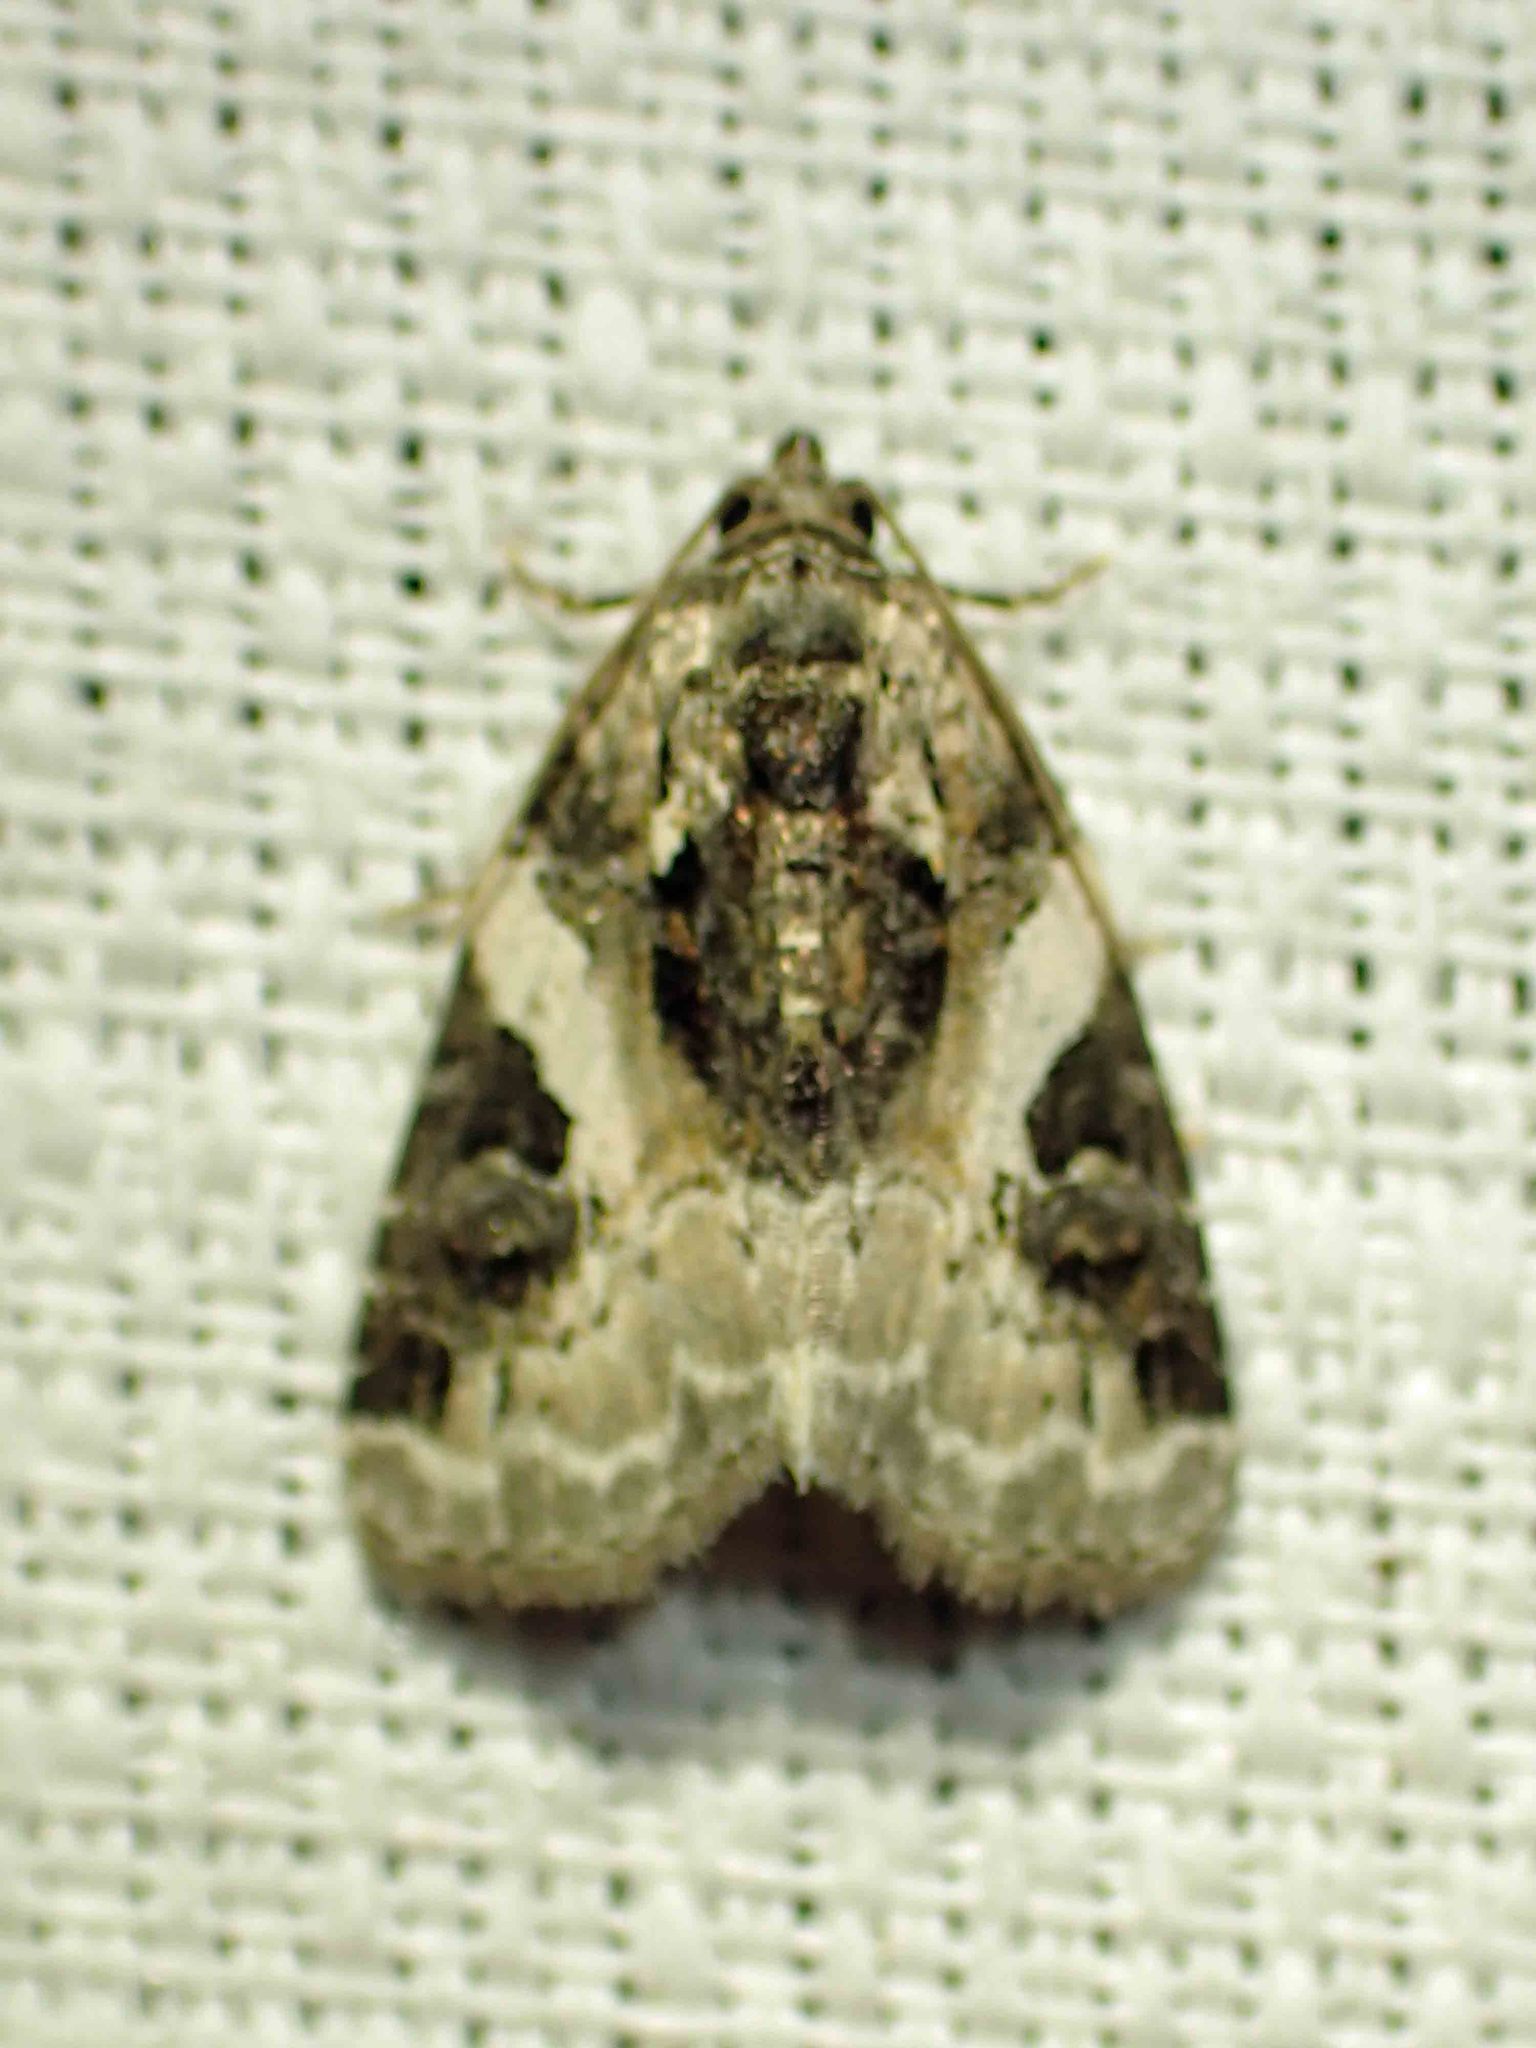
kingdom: Animalia
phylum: Arthropoda
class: Insecta
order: Lepidoptera
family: Noctuidae
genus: Pseudeustrotia
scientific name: Pseudeustrotia carneola
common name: Pink-barred lithacodia moth
